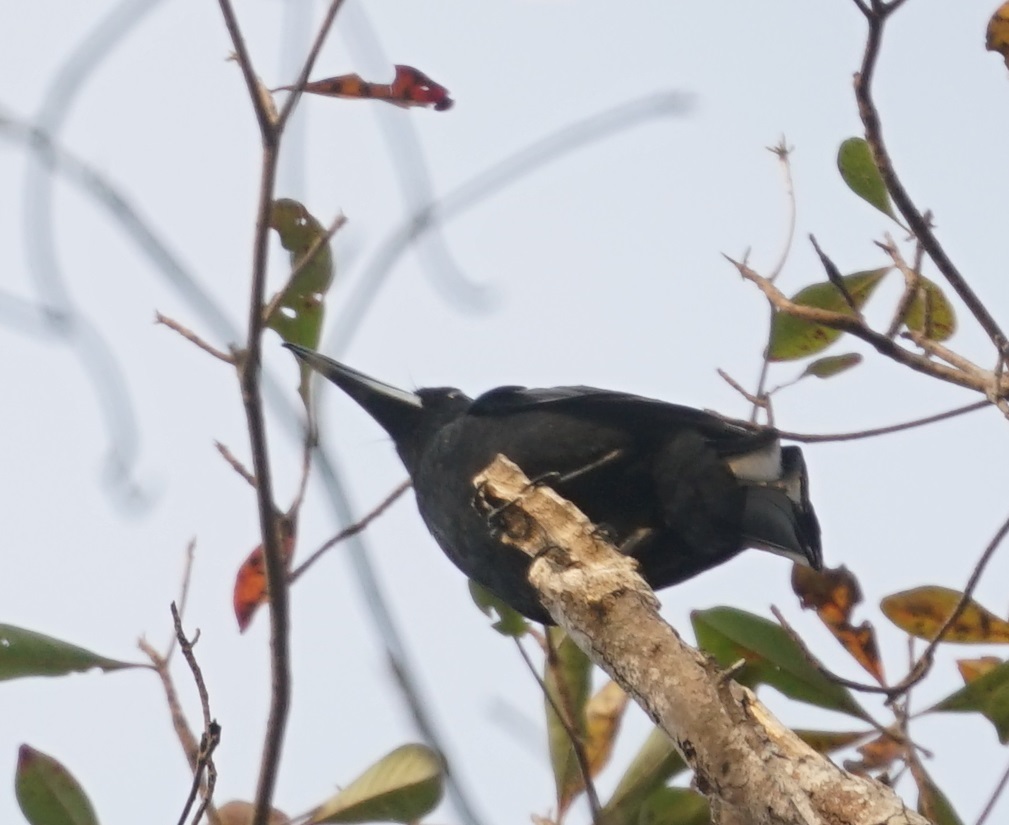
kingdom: Animalia
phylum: Chordata
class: Aves
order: Passeriformes
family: Artamidae
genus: Melloria
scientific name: Melloria quoyi
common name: Black butcherbird
